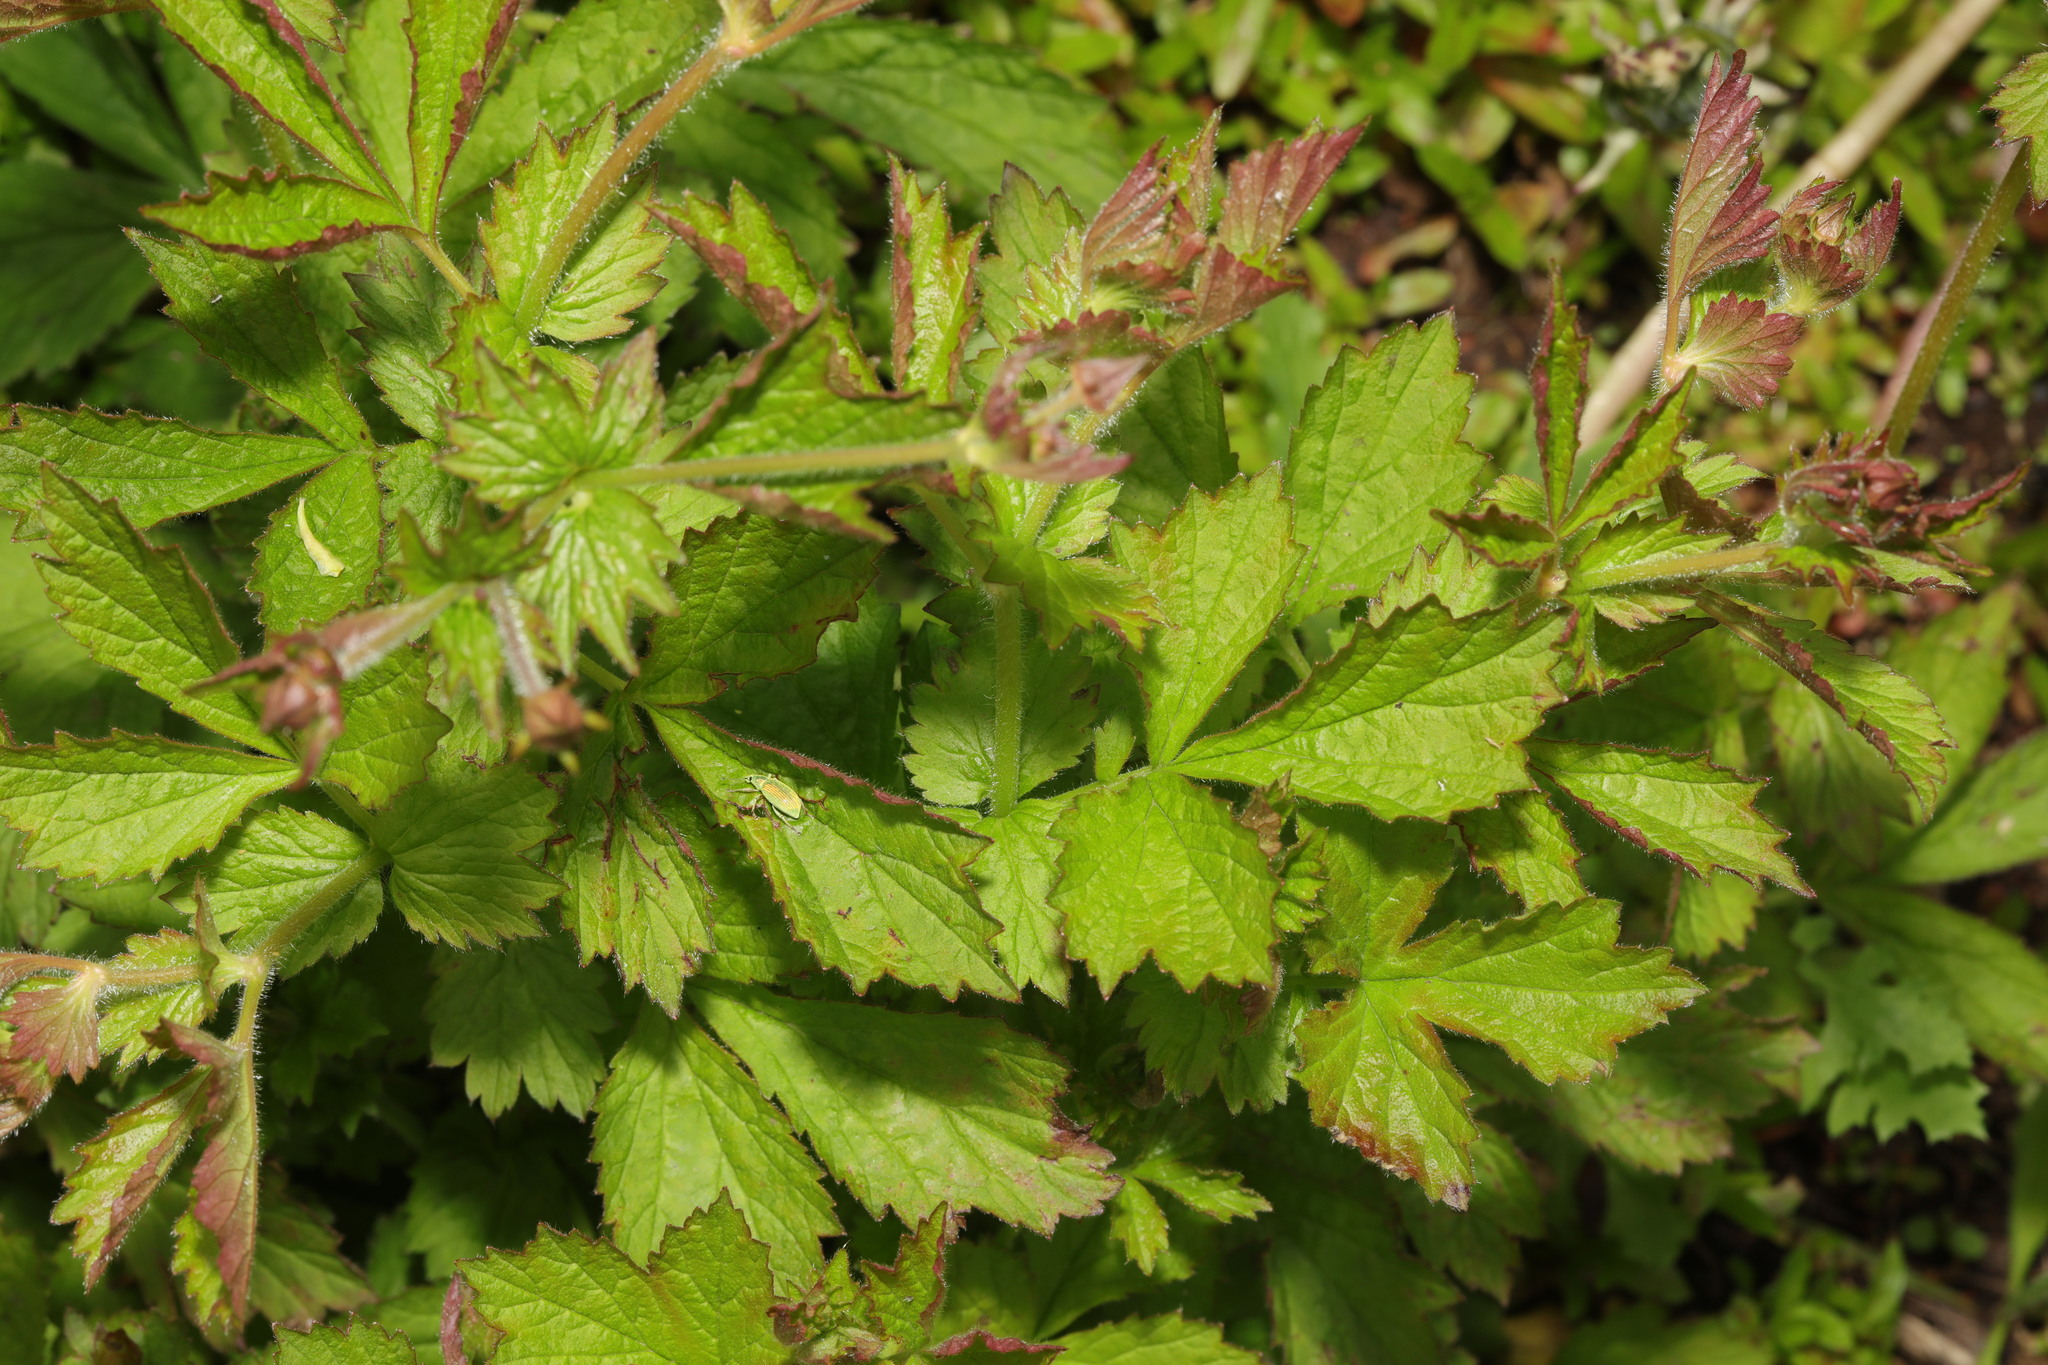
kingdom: Plantae
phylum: Tracheophyta
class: Magnoliopsida
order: Rosales
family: Rosaceae
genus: Geum
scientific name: Geum urbanum
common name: Wood avens
